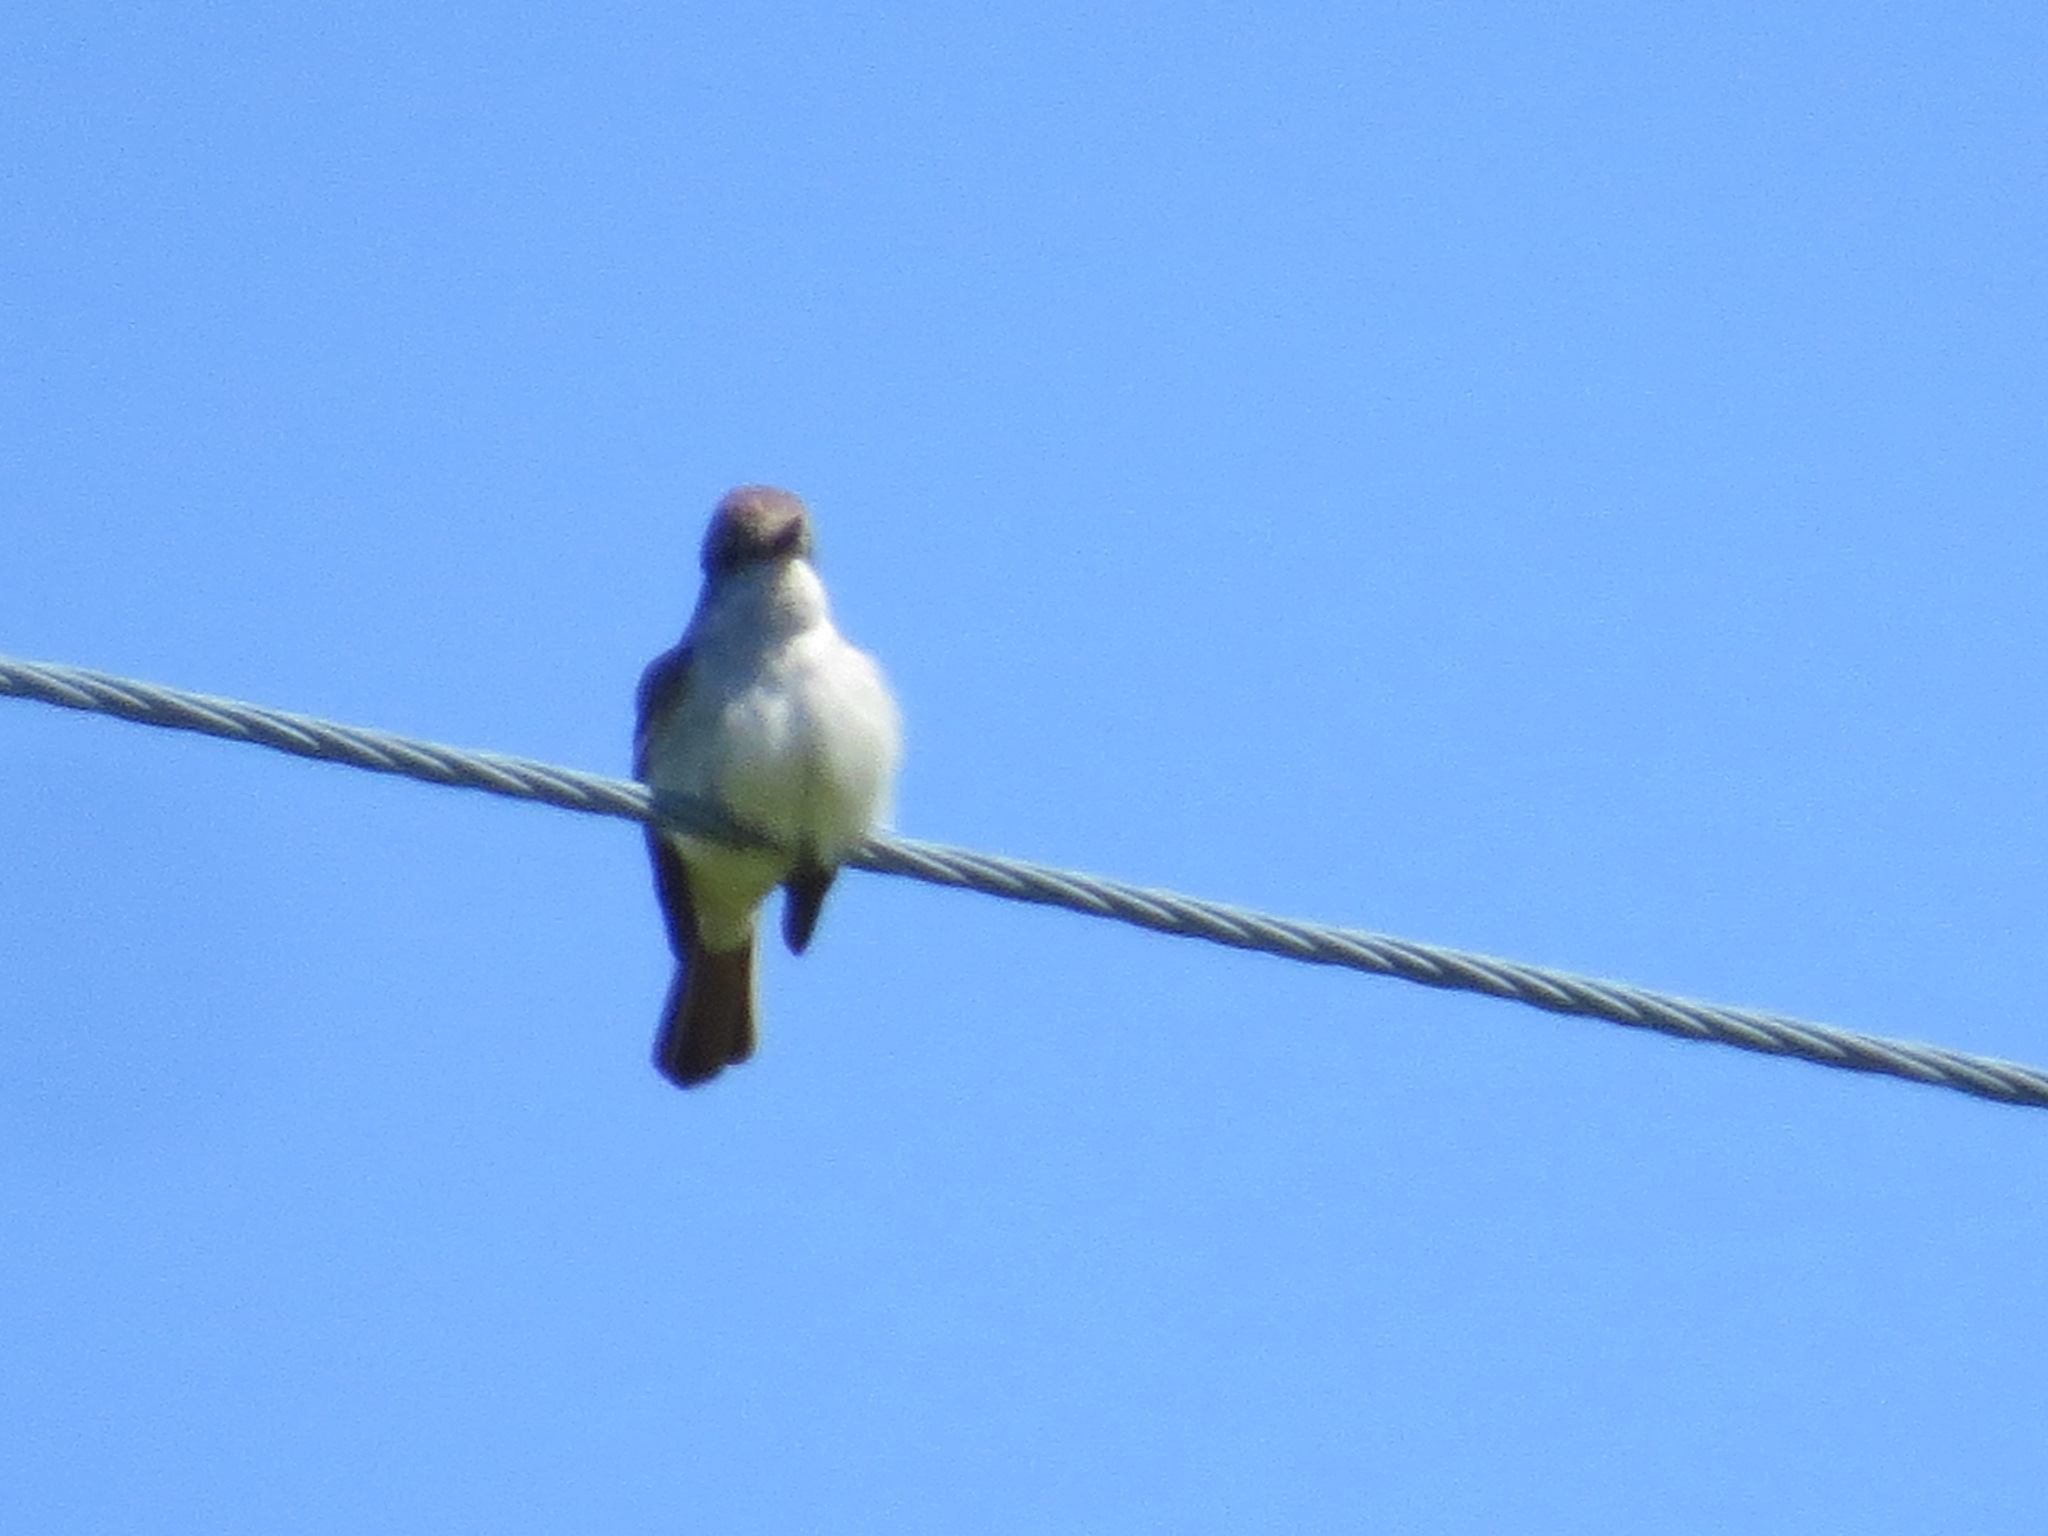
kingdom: Animalia
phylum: Chordata
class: Aves
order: Passeriformes
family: Tyrannidae
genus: Myiarchus
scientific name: Myiarchus cinerascens
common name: Ash-throated flycatcher
